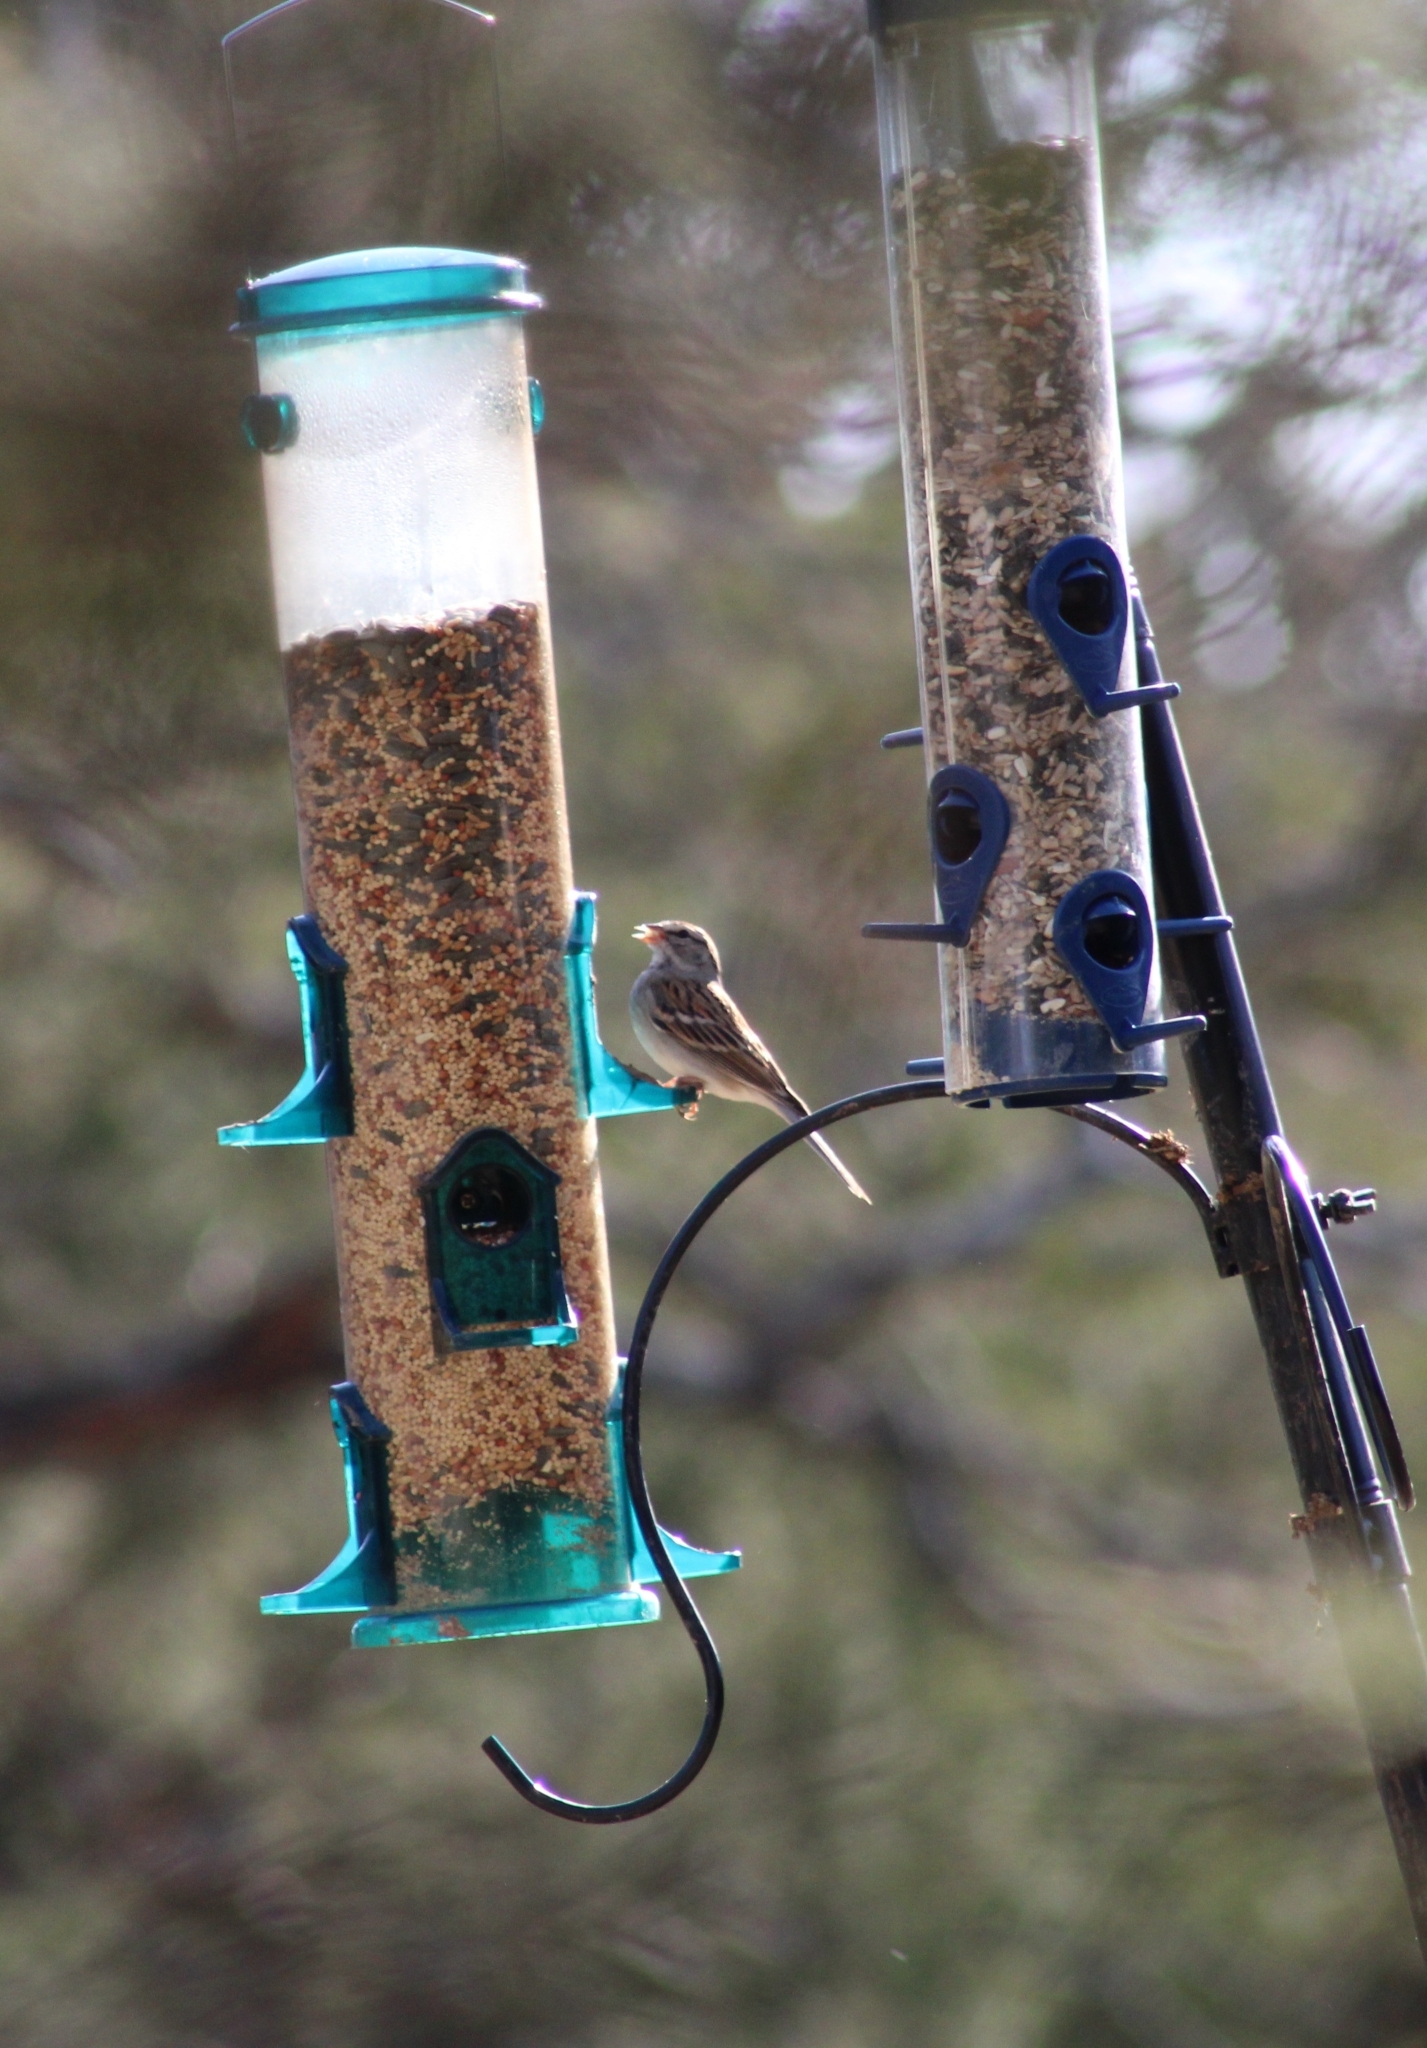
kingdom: Animalia
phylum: Chordata
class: Aves
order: Passeriformes
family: Passerellidae
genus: Spizella
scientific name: Spizella passerina
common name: Chipping sparrow
